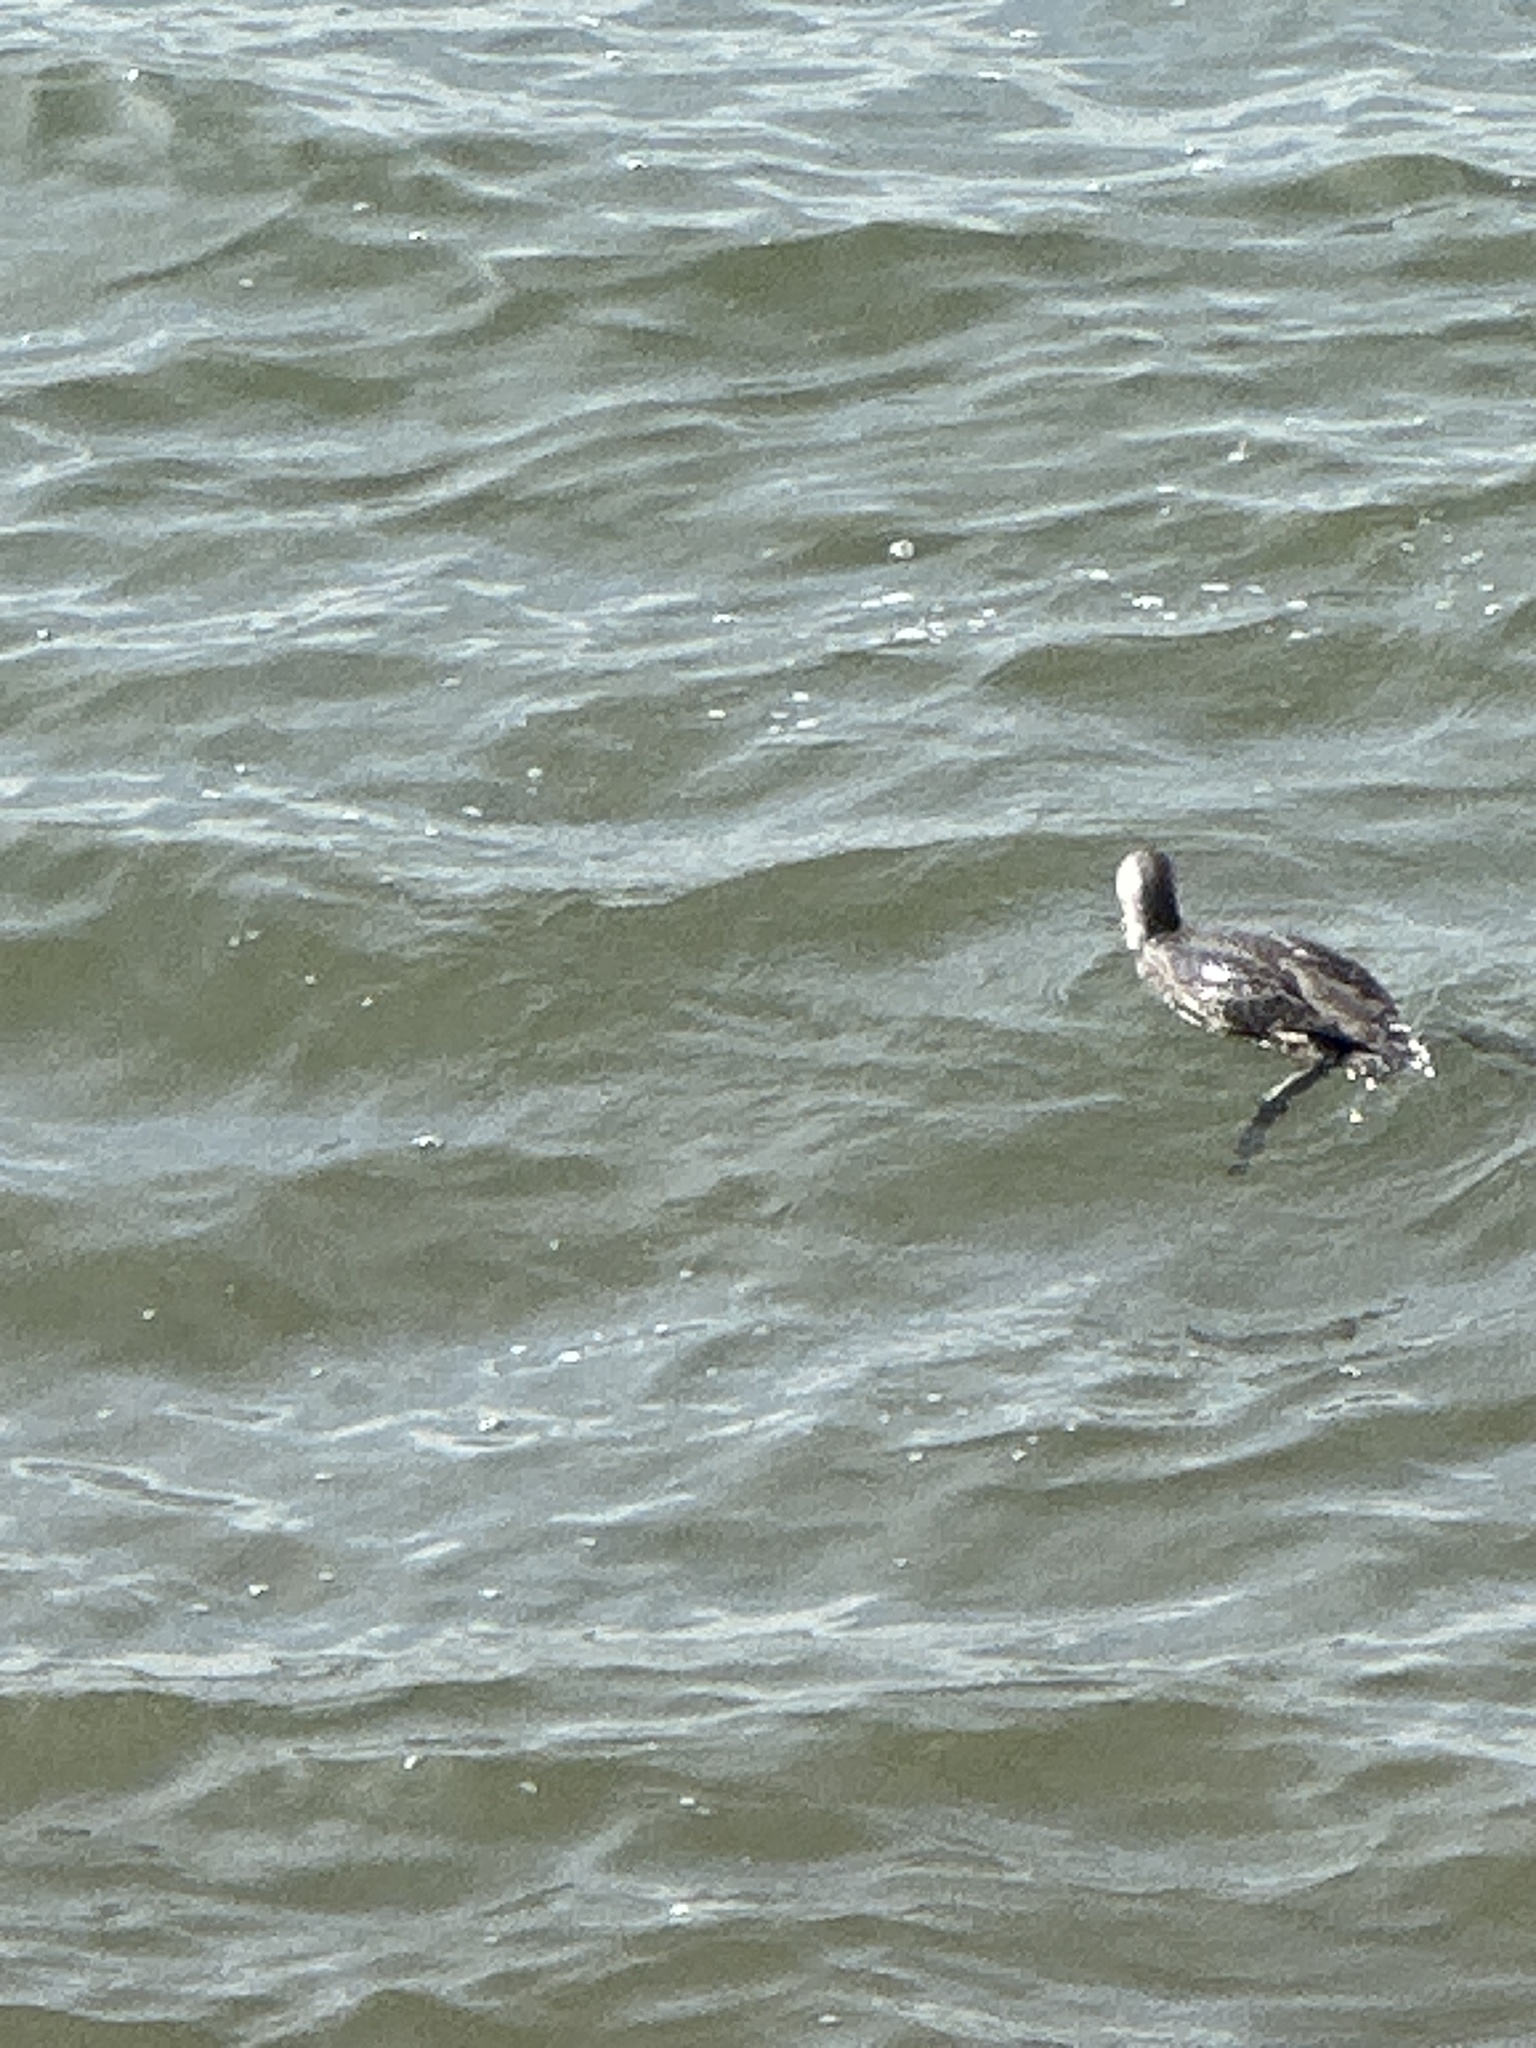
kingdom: Animalia
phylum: Chordata
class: Aves
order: Gaviiformes
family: Gaviidae
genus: Gavia
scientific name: Gavia stellata
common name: Red-throated loon
